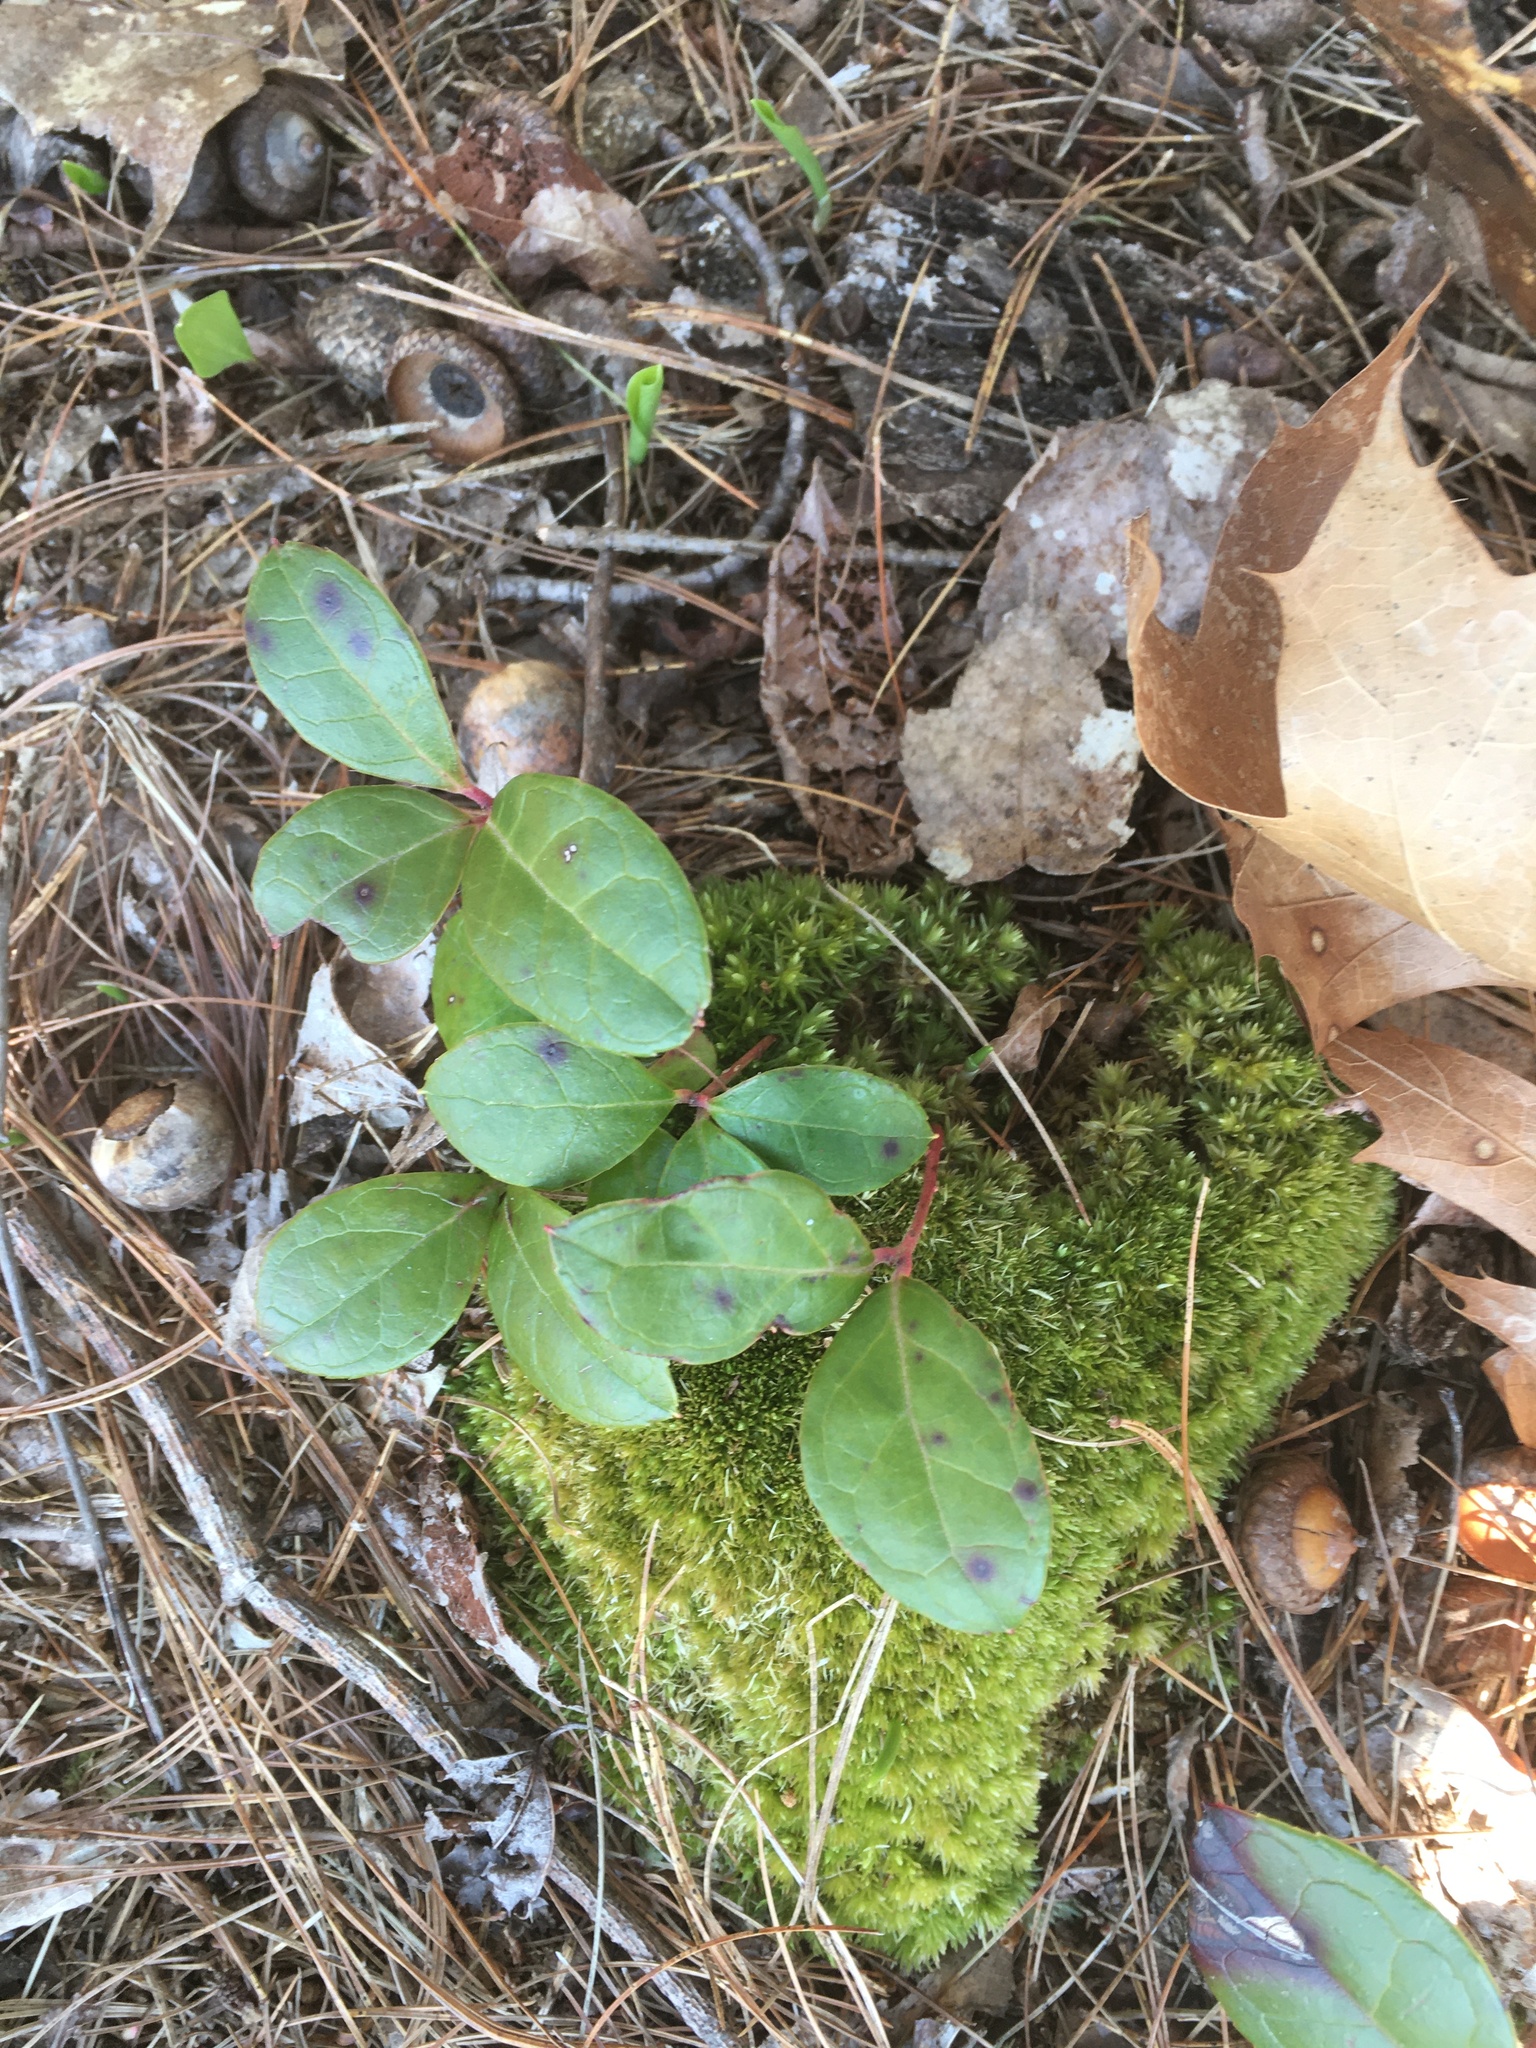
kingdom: Plantae
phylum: Tracheophyta
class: Magnoliopsida
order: Ericales
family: Ericaceae
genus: Gaultheria
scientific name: Gaultheria procumbens
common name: Checkerberry
